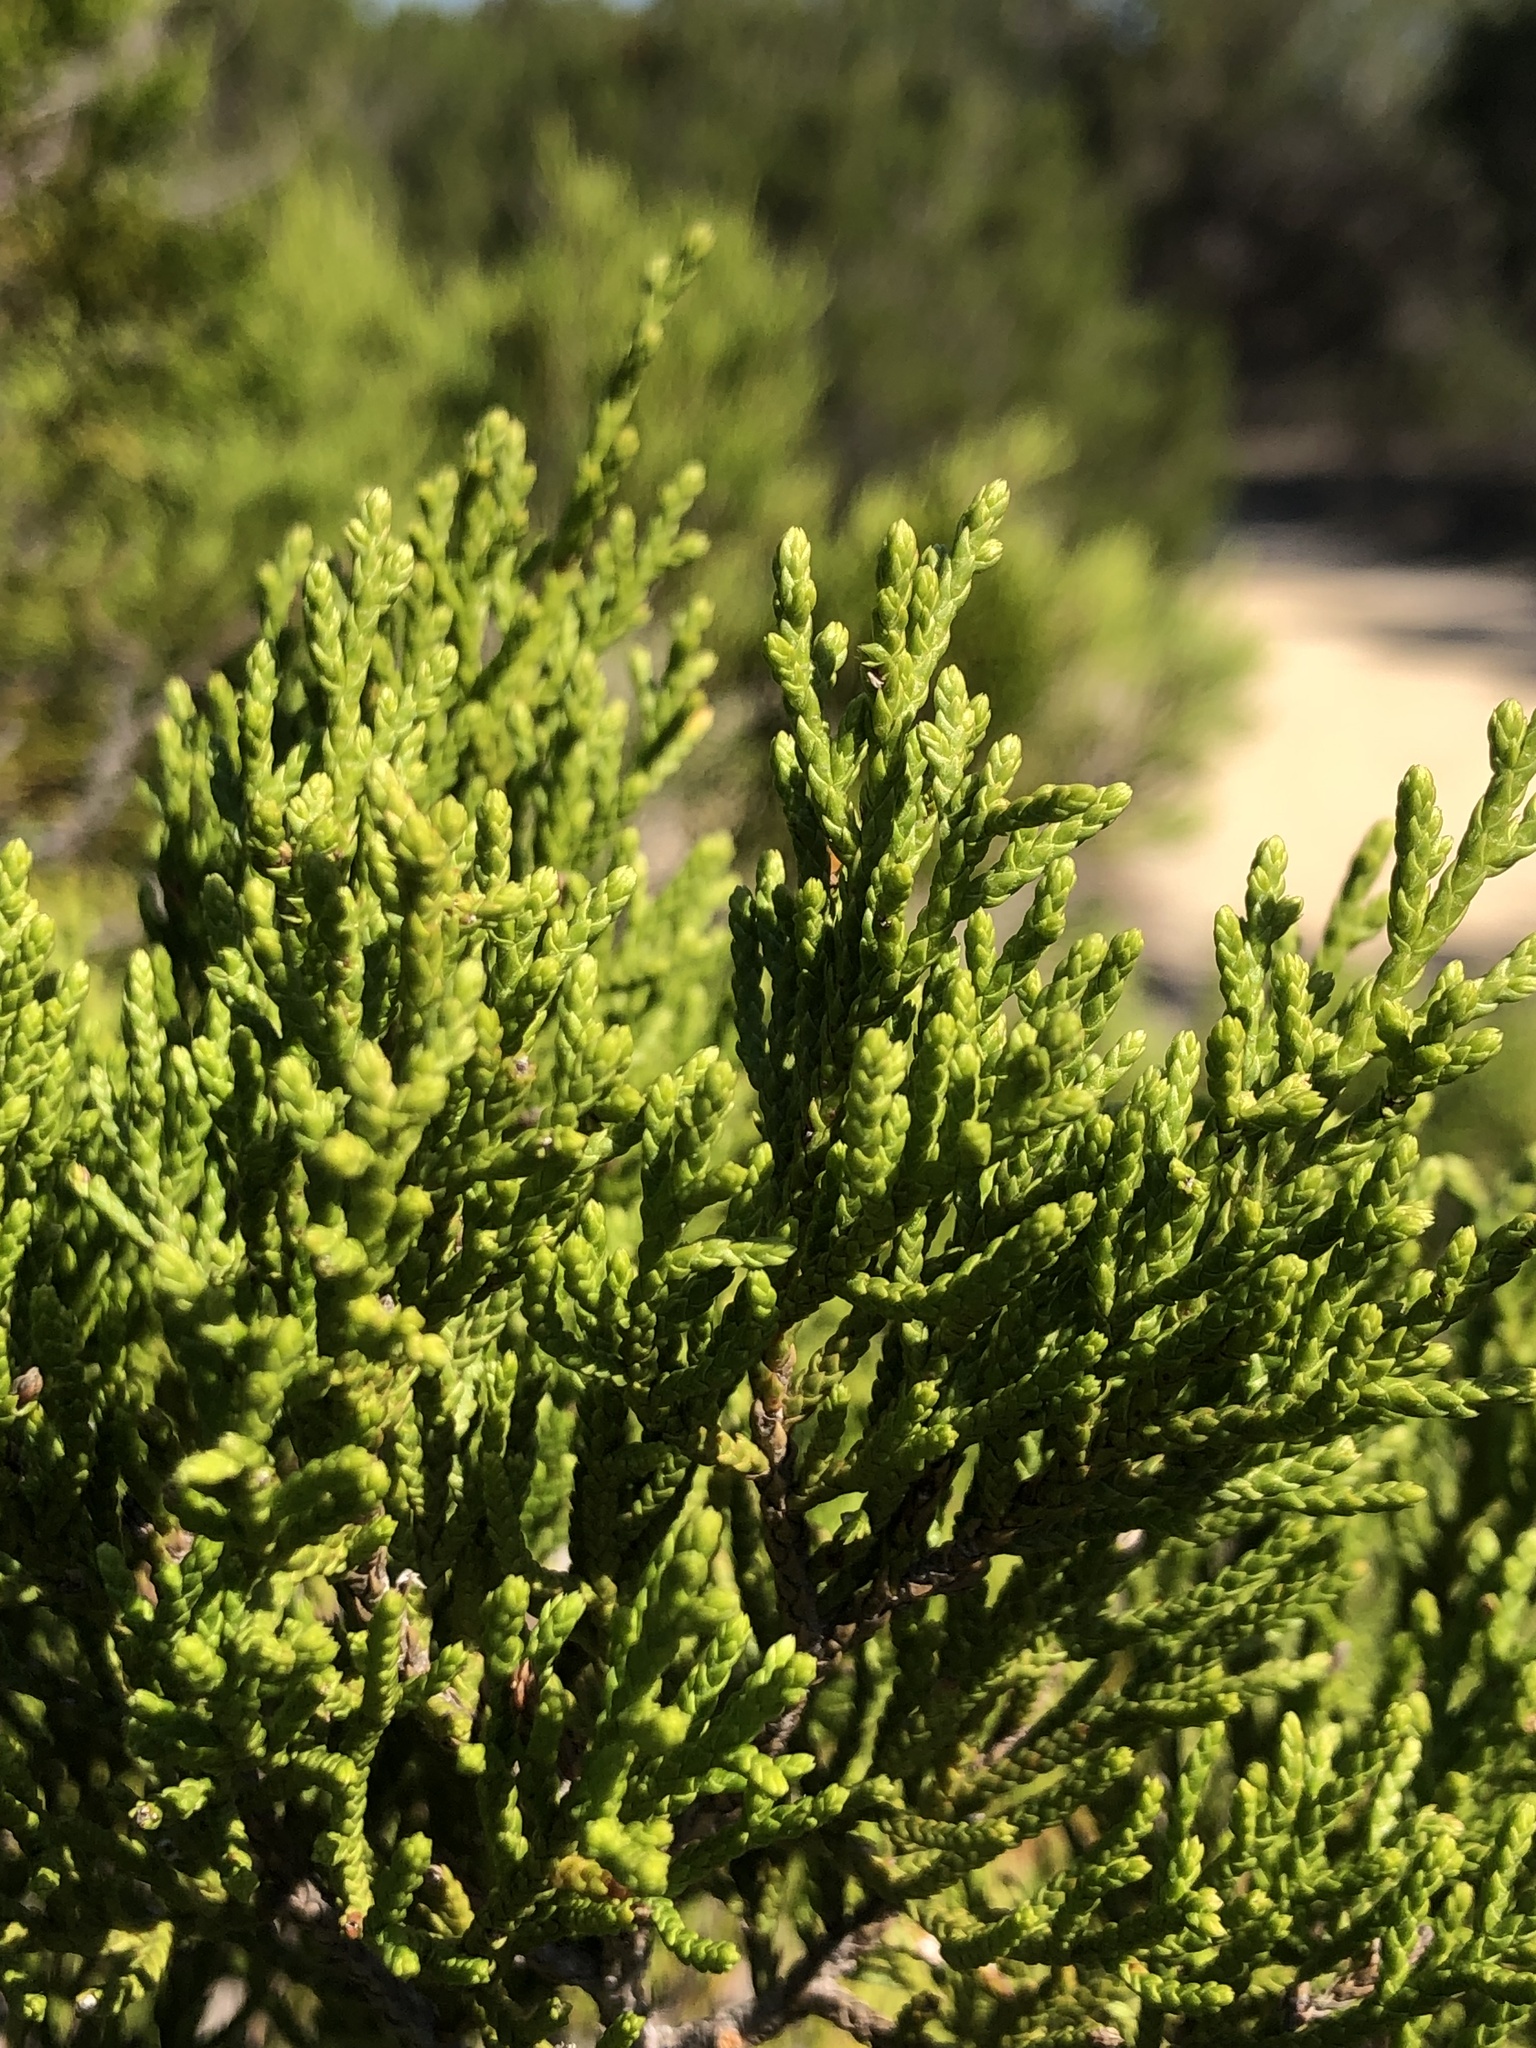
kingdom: Plantae
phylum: Tracheophyta
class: Pinopsida
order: Pinales
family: Cupressaceae
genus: Juniperus
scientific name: Juniperus ashei
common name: Mexican juniper
